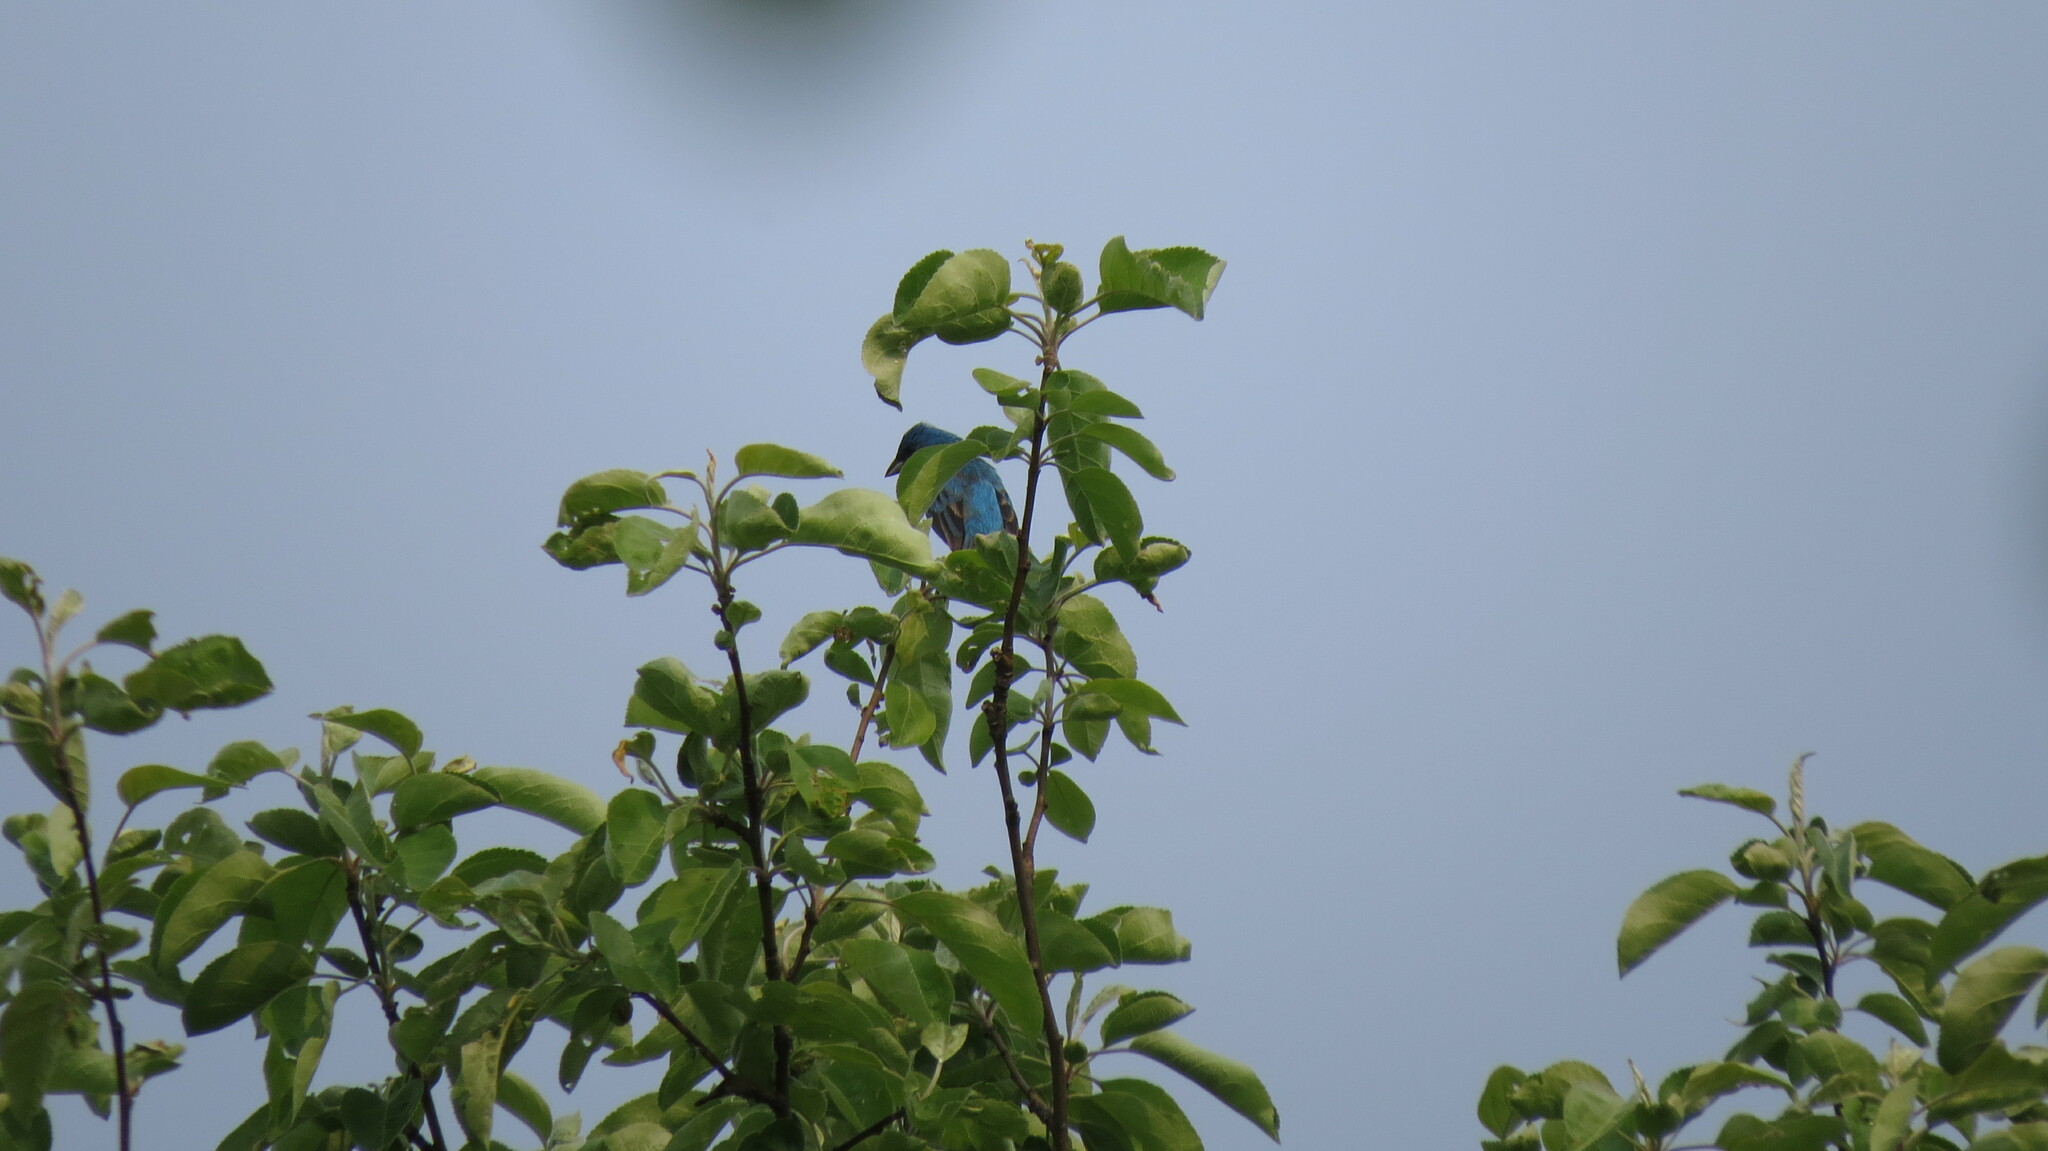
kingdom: Animalia
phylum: Chordata
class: Aves
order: Passeriformes
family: Cardinalidae
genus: Passerina
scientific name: Passerina cyanea
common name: Indigo bunting
